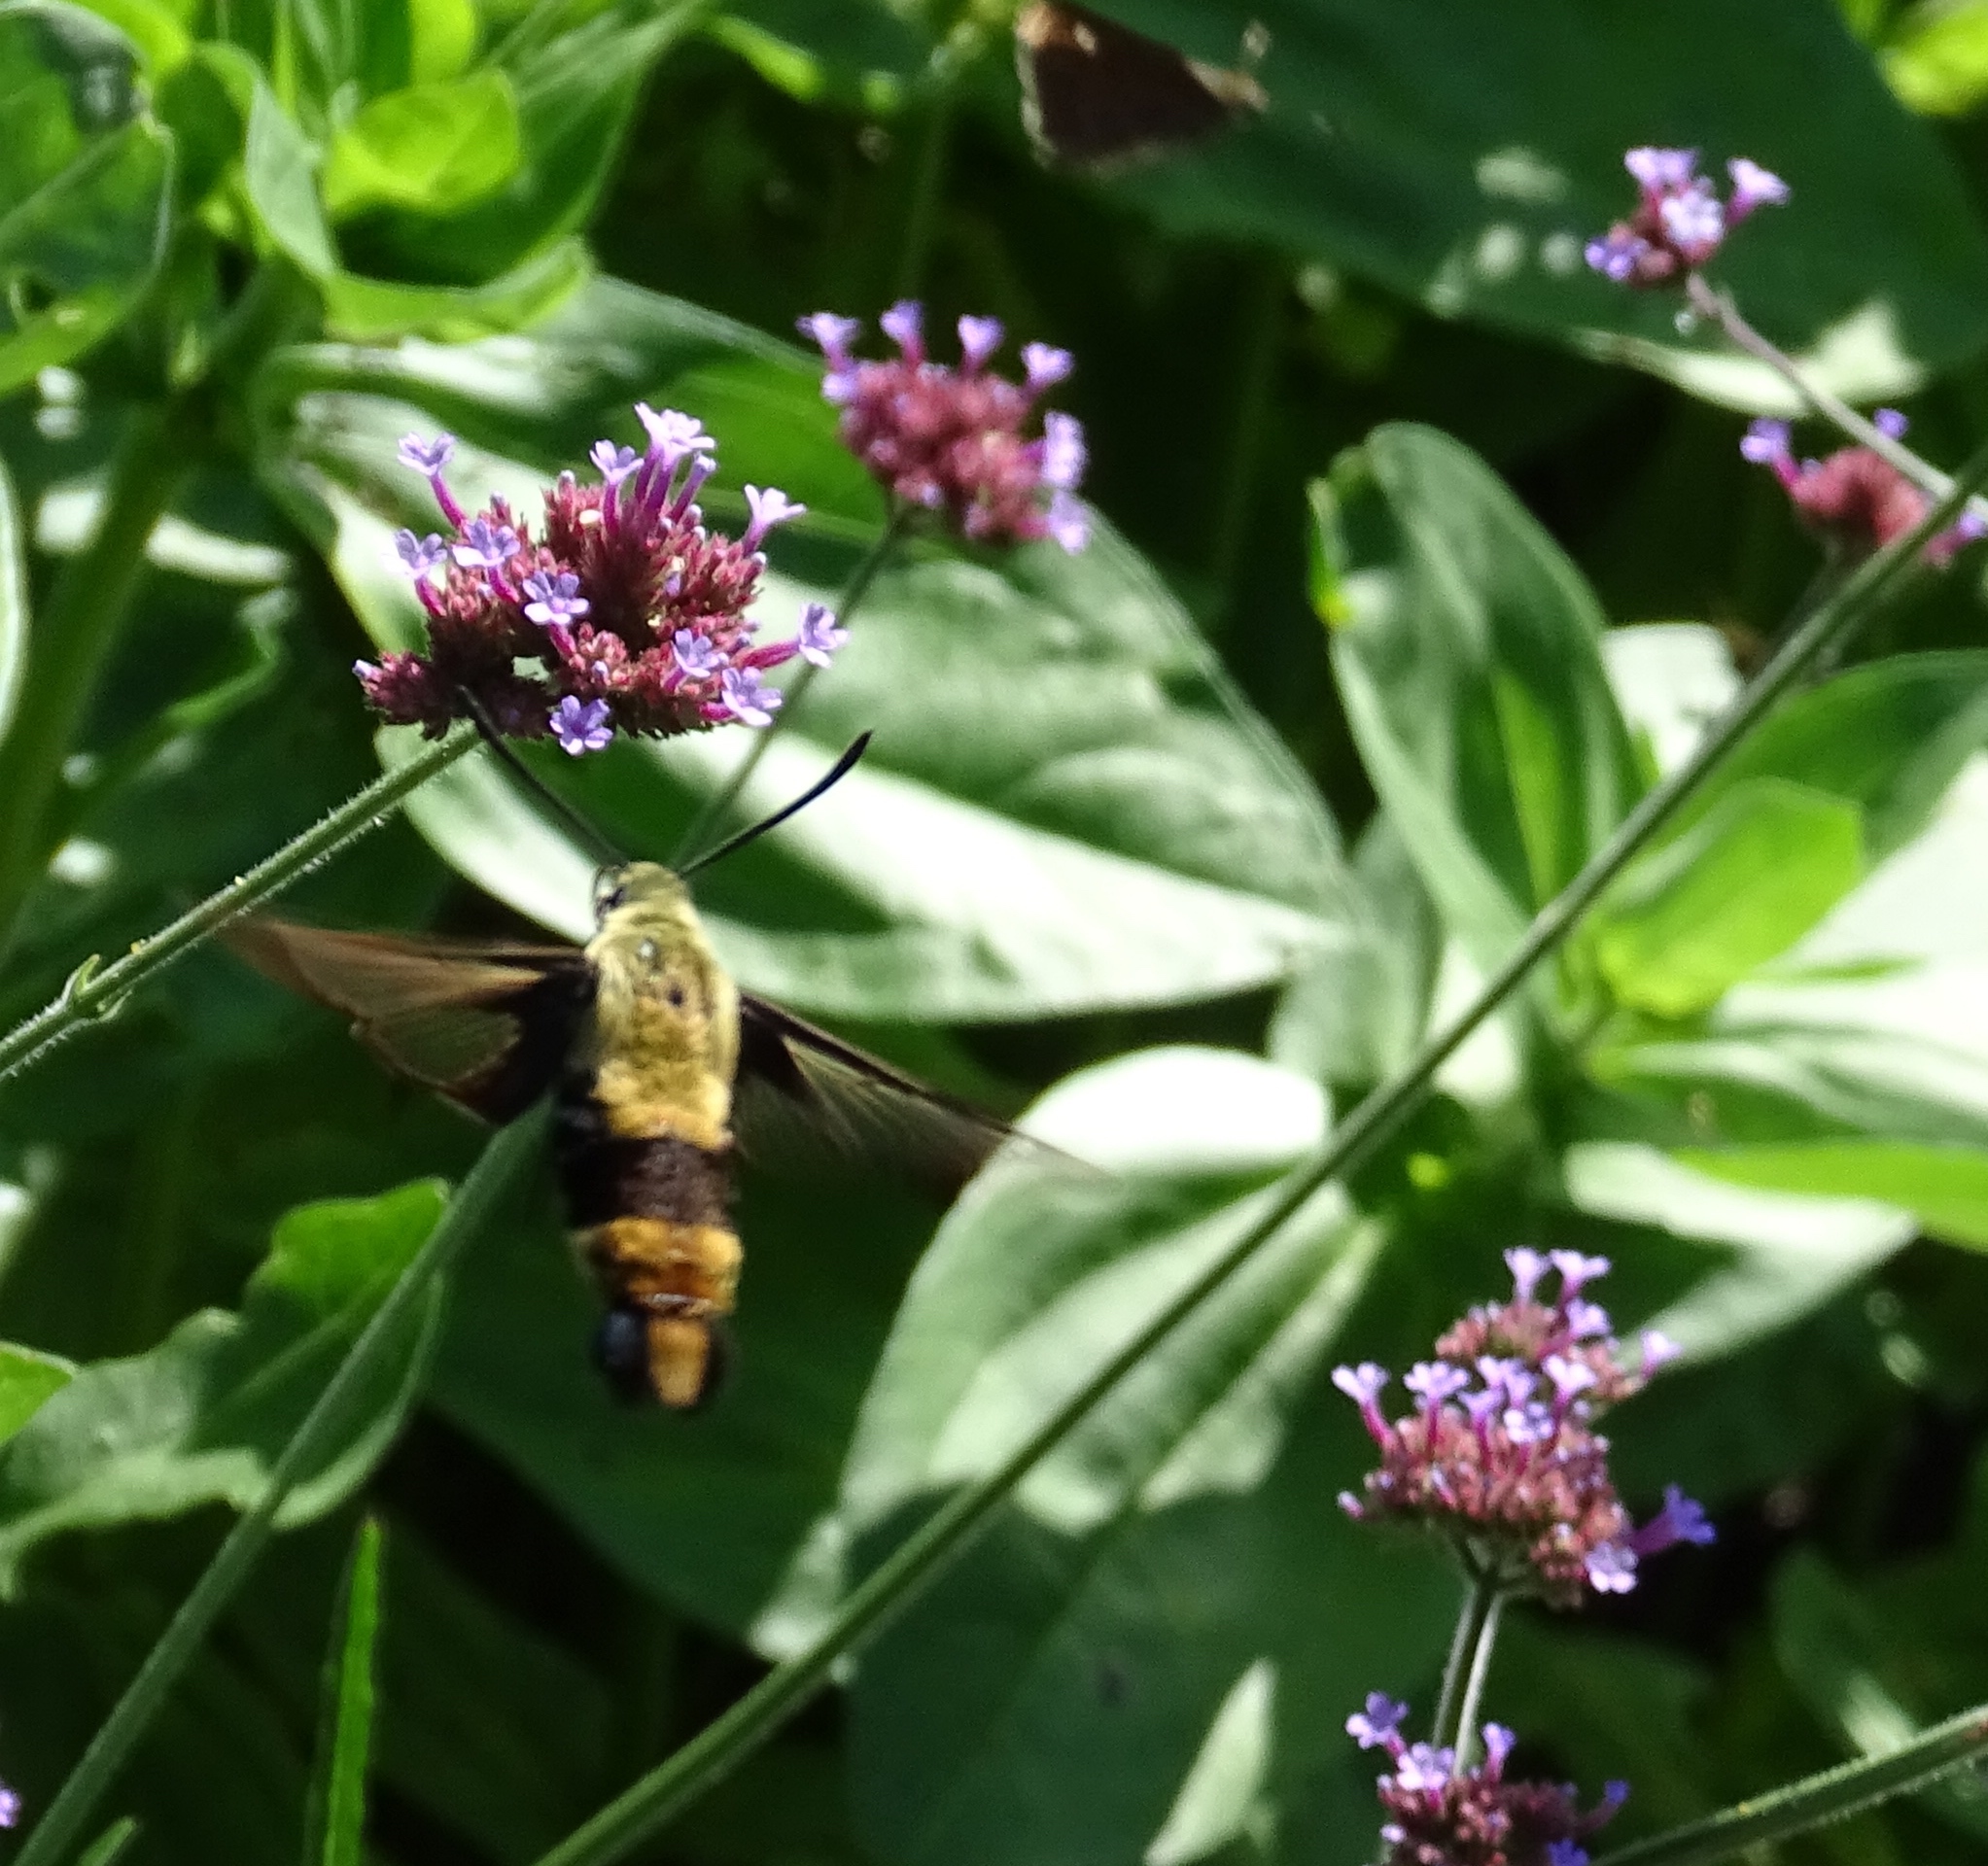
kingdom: Animalia
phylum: Arthropoda
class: Insecta
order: Lepidoptera
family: Sphingidae
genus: Hemaris
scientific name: Hemaris diffinis
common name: Bumblebee moth
